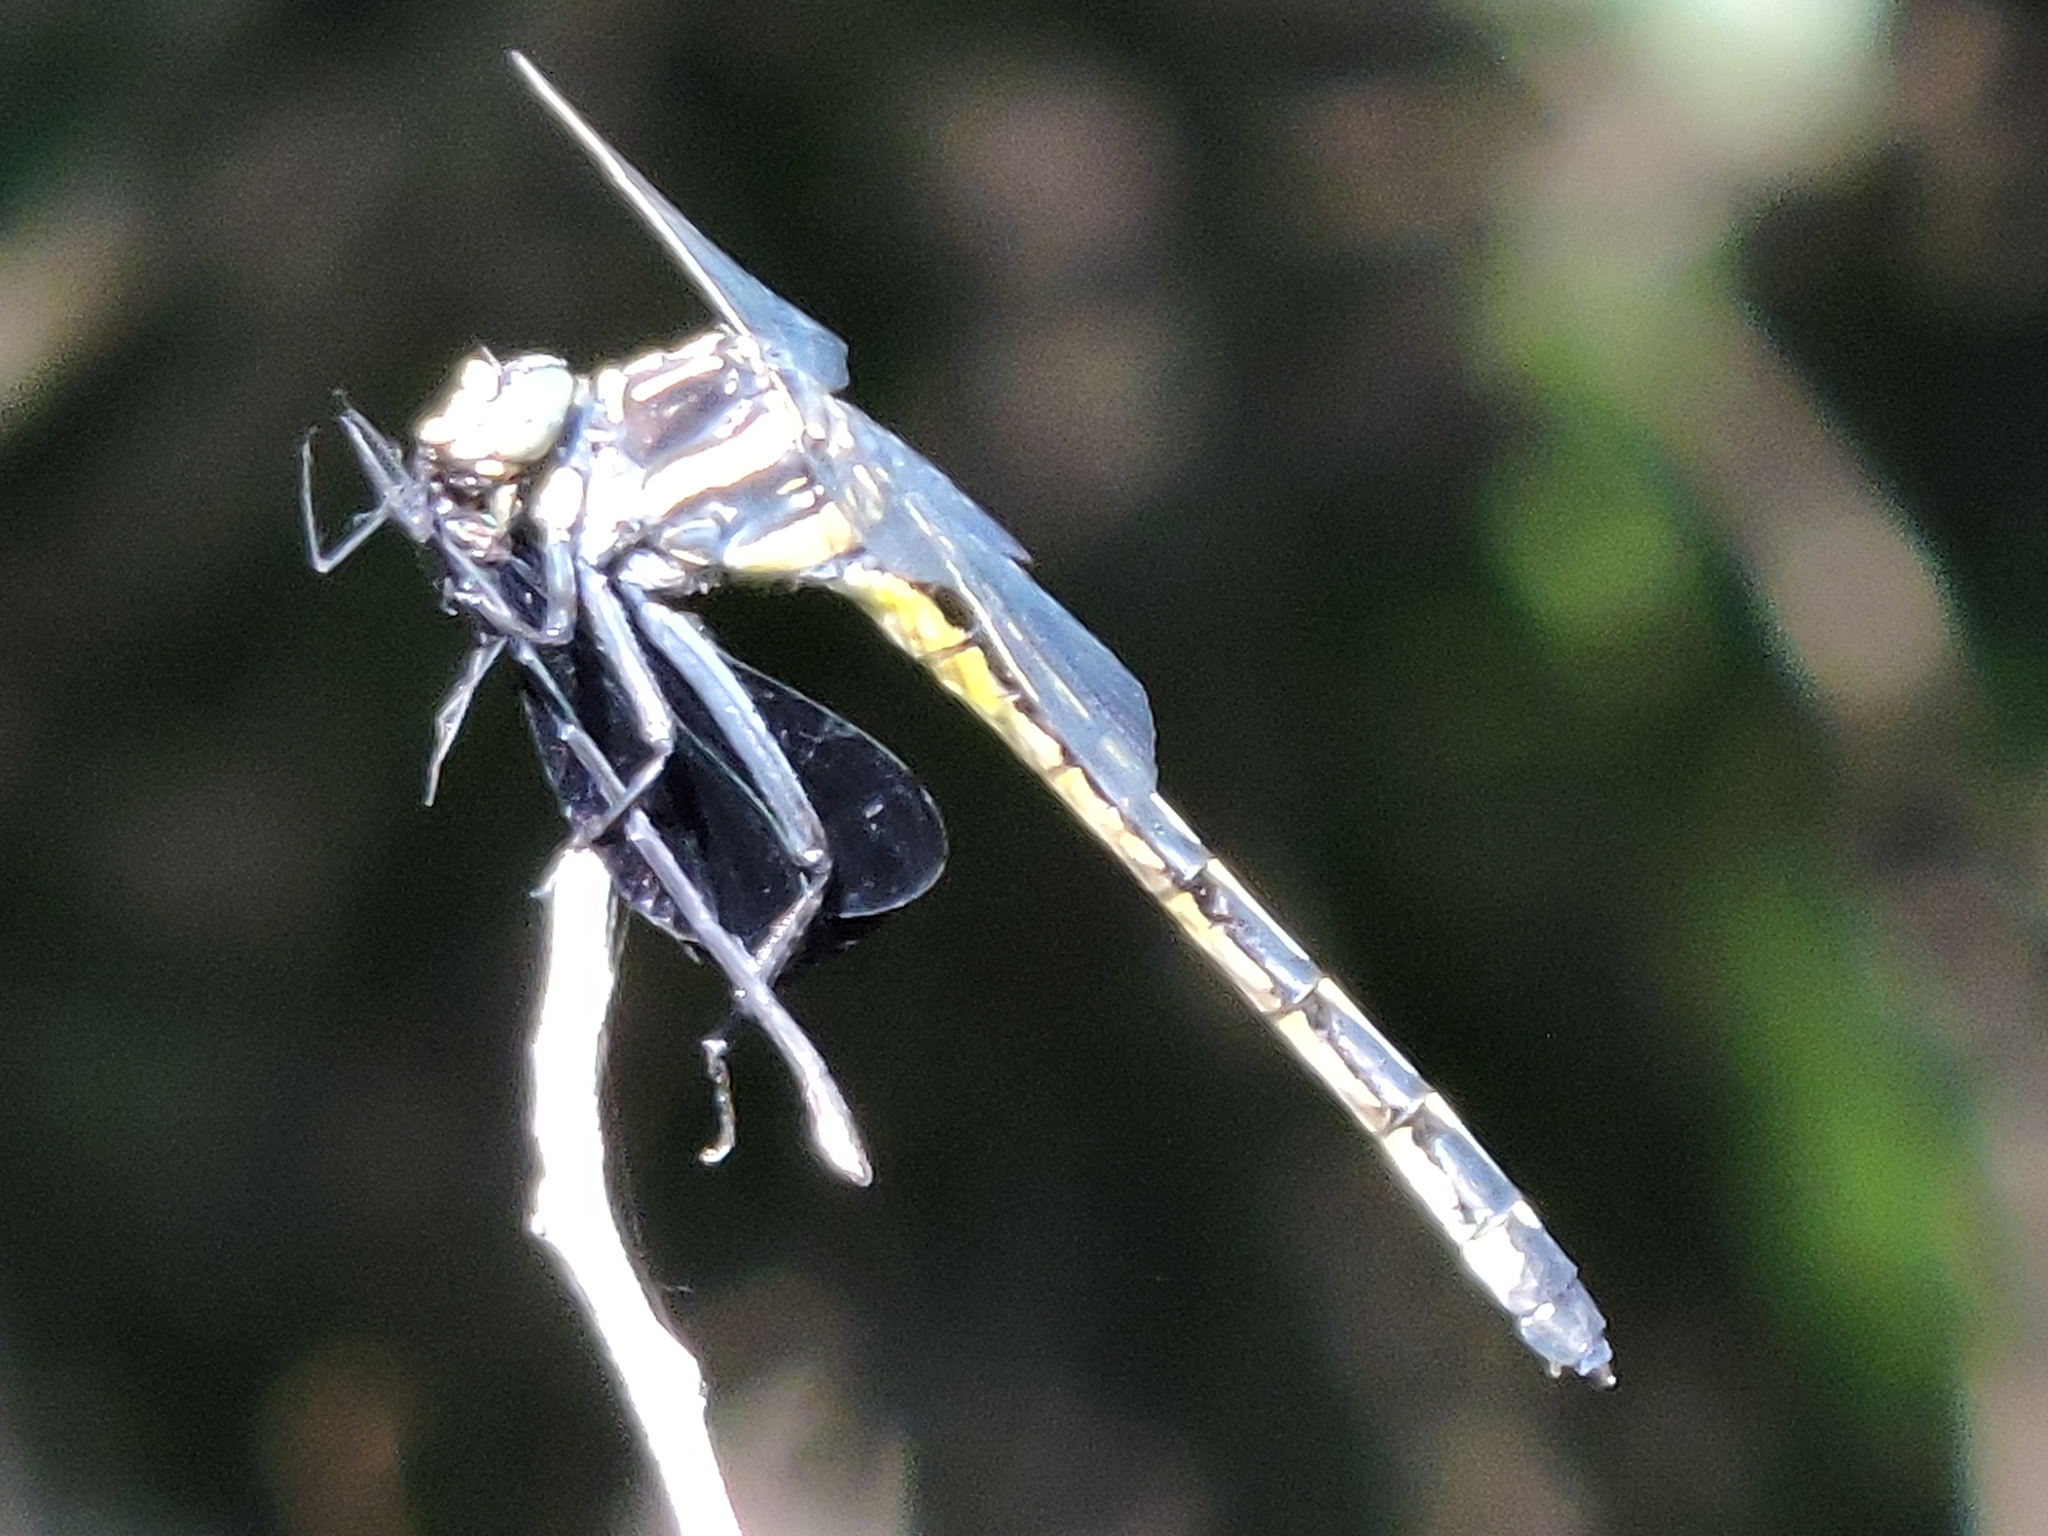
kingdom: Animalia
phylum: Arthropoda
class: Insecta
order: Odonata
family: Gomphidae
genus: Hagenius
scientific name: Hagenius brevistylus
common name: Dragonhunter
